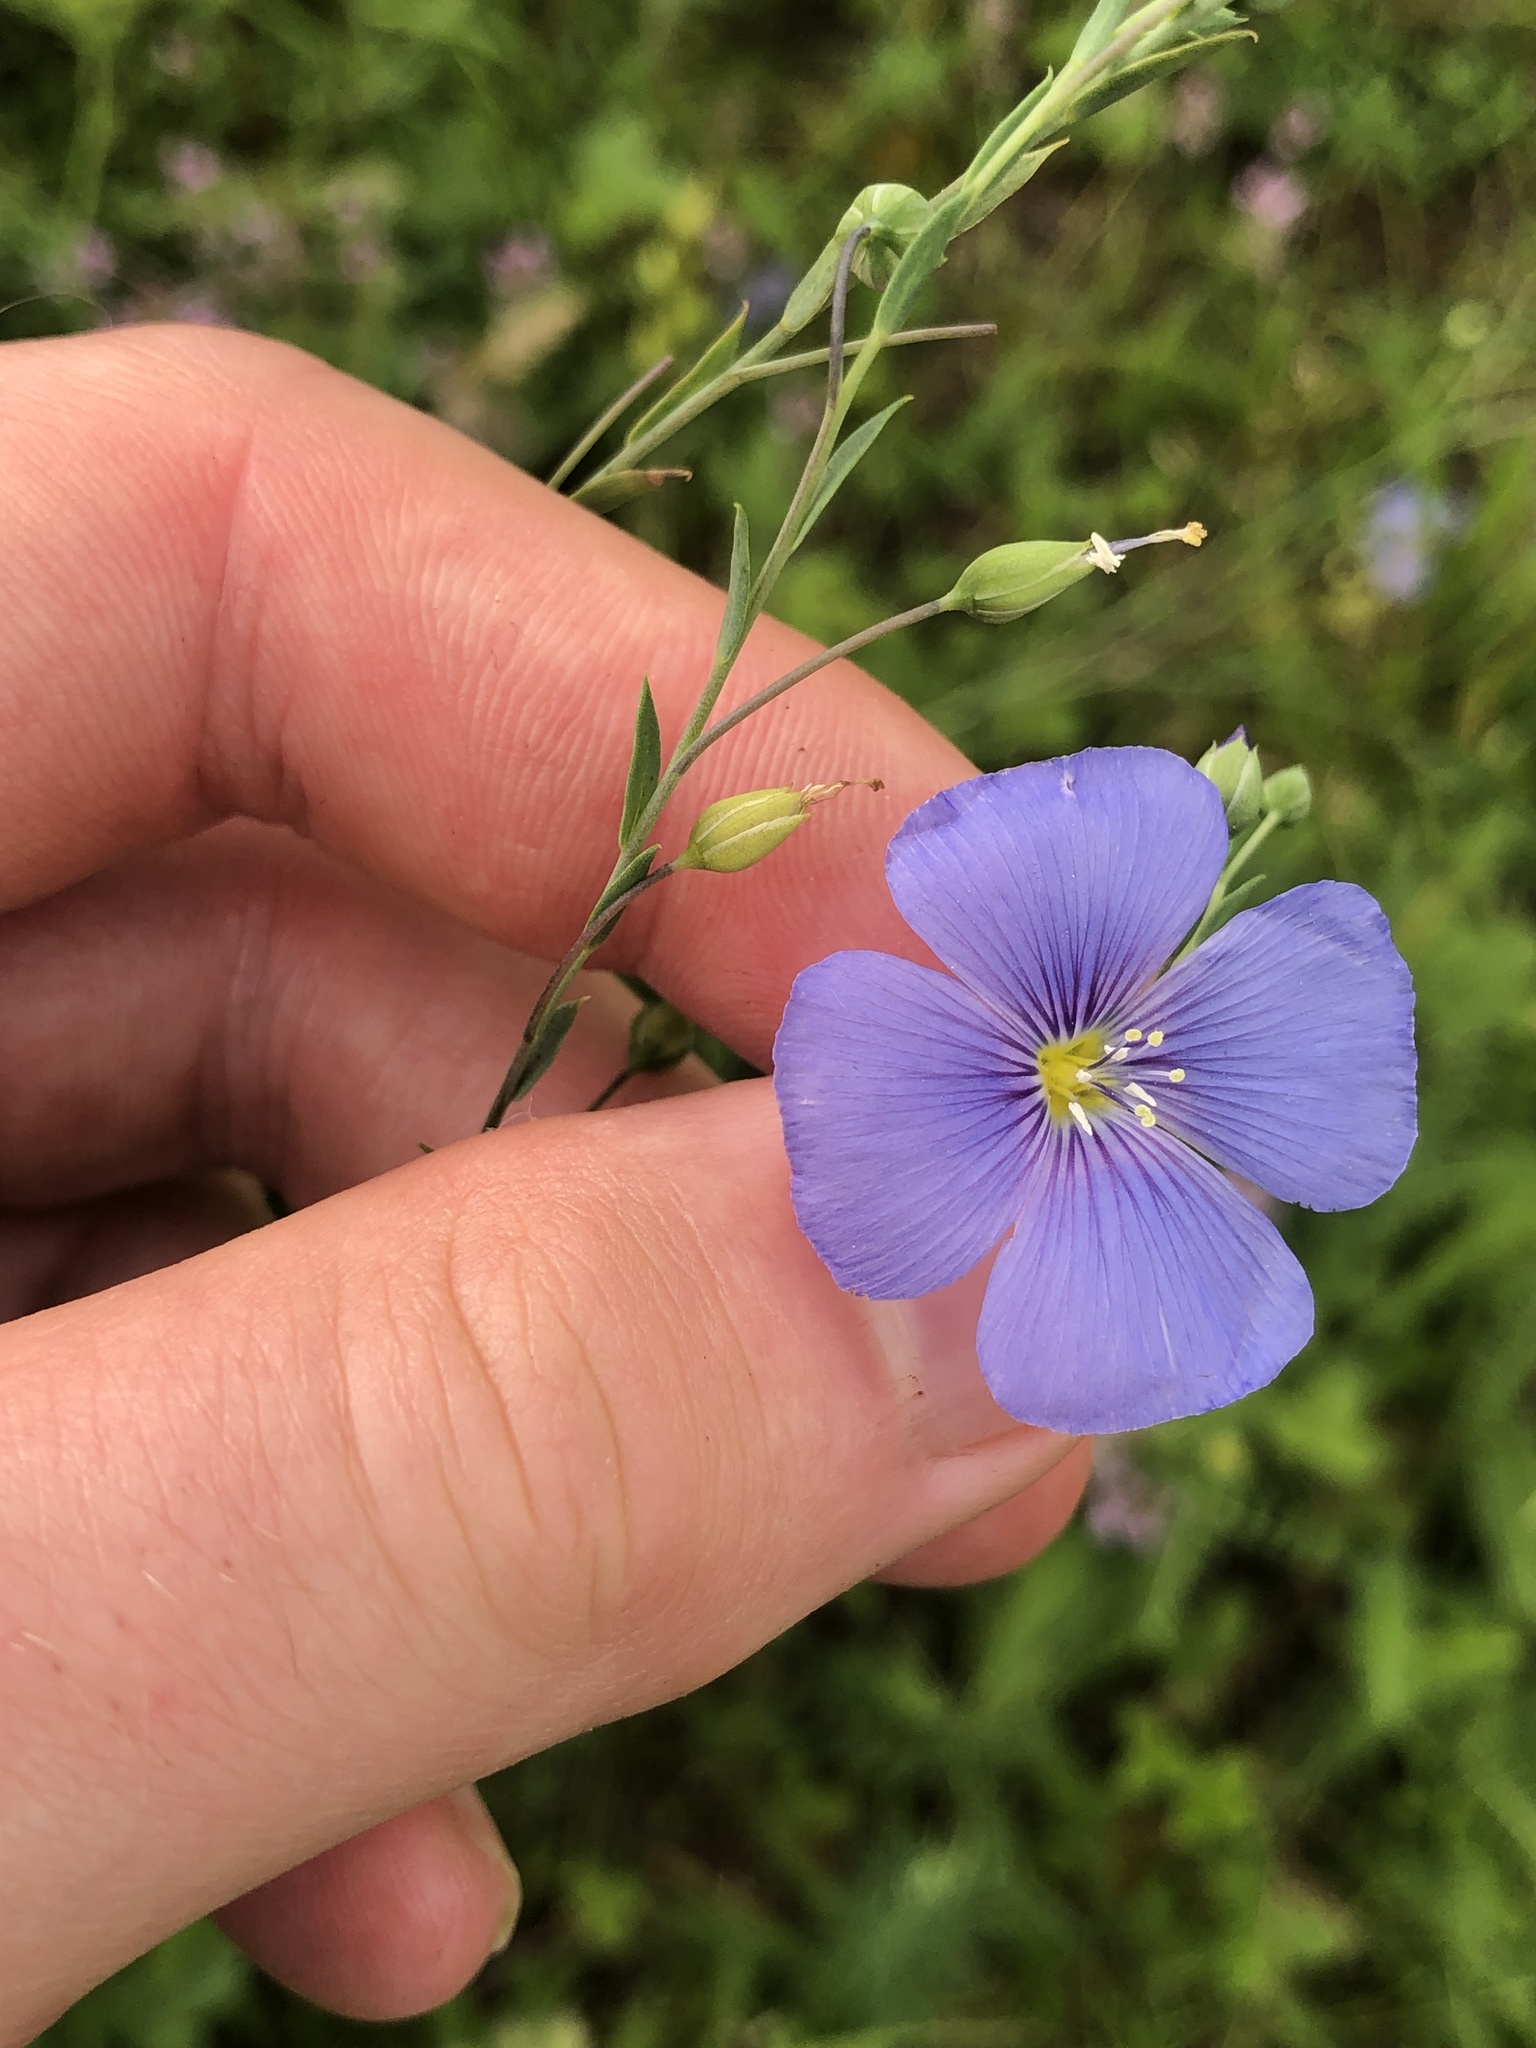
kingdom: Plantae
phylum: Tracheophyta
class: Magnoliopsida
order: Malpighiales
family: Linaceae
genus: Linum
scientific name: Linum austriacum
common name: Austrian flax
